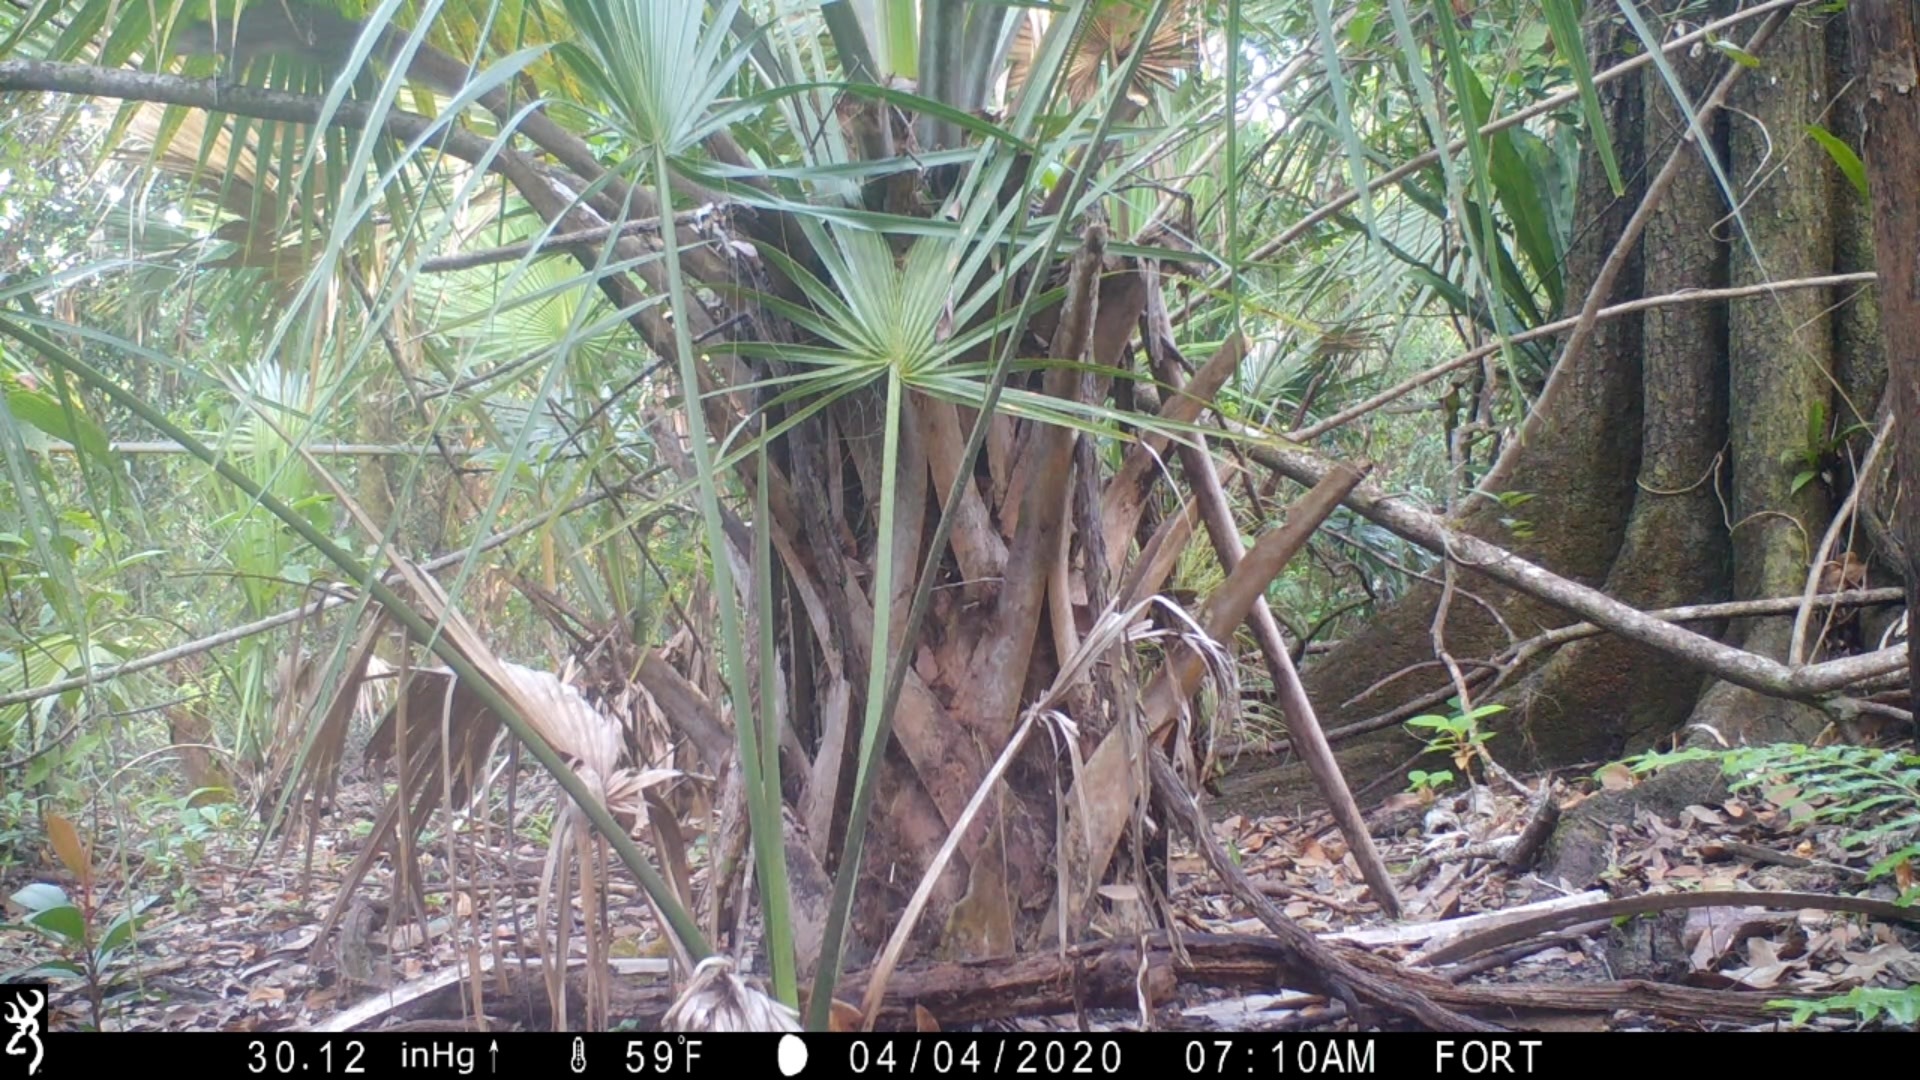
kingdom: Animalia
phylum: Chordata
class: Mammalia
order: Rodentia
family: Sciuridae
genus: Sciurus
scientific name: Sciurus carolinensis
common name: Eastern gray squirrel
